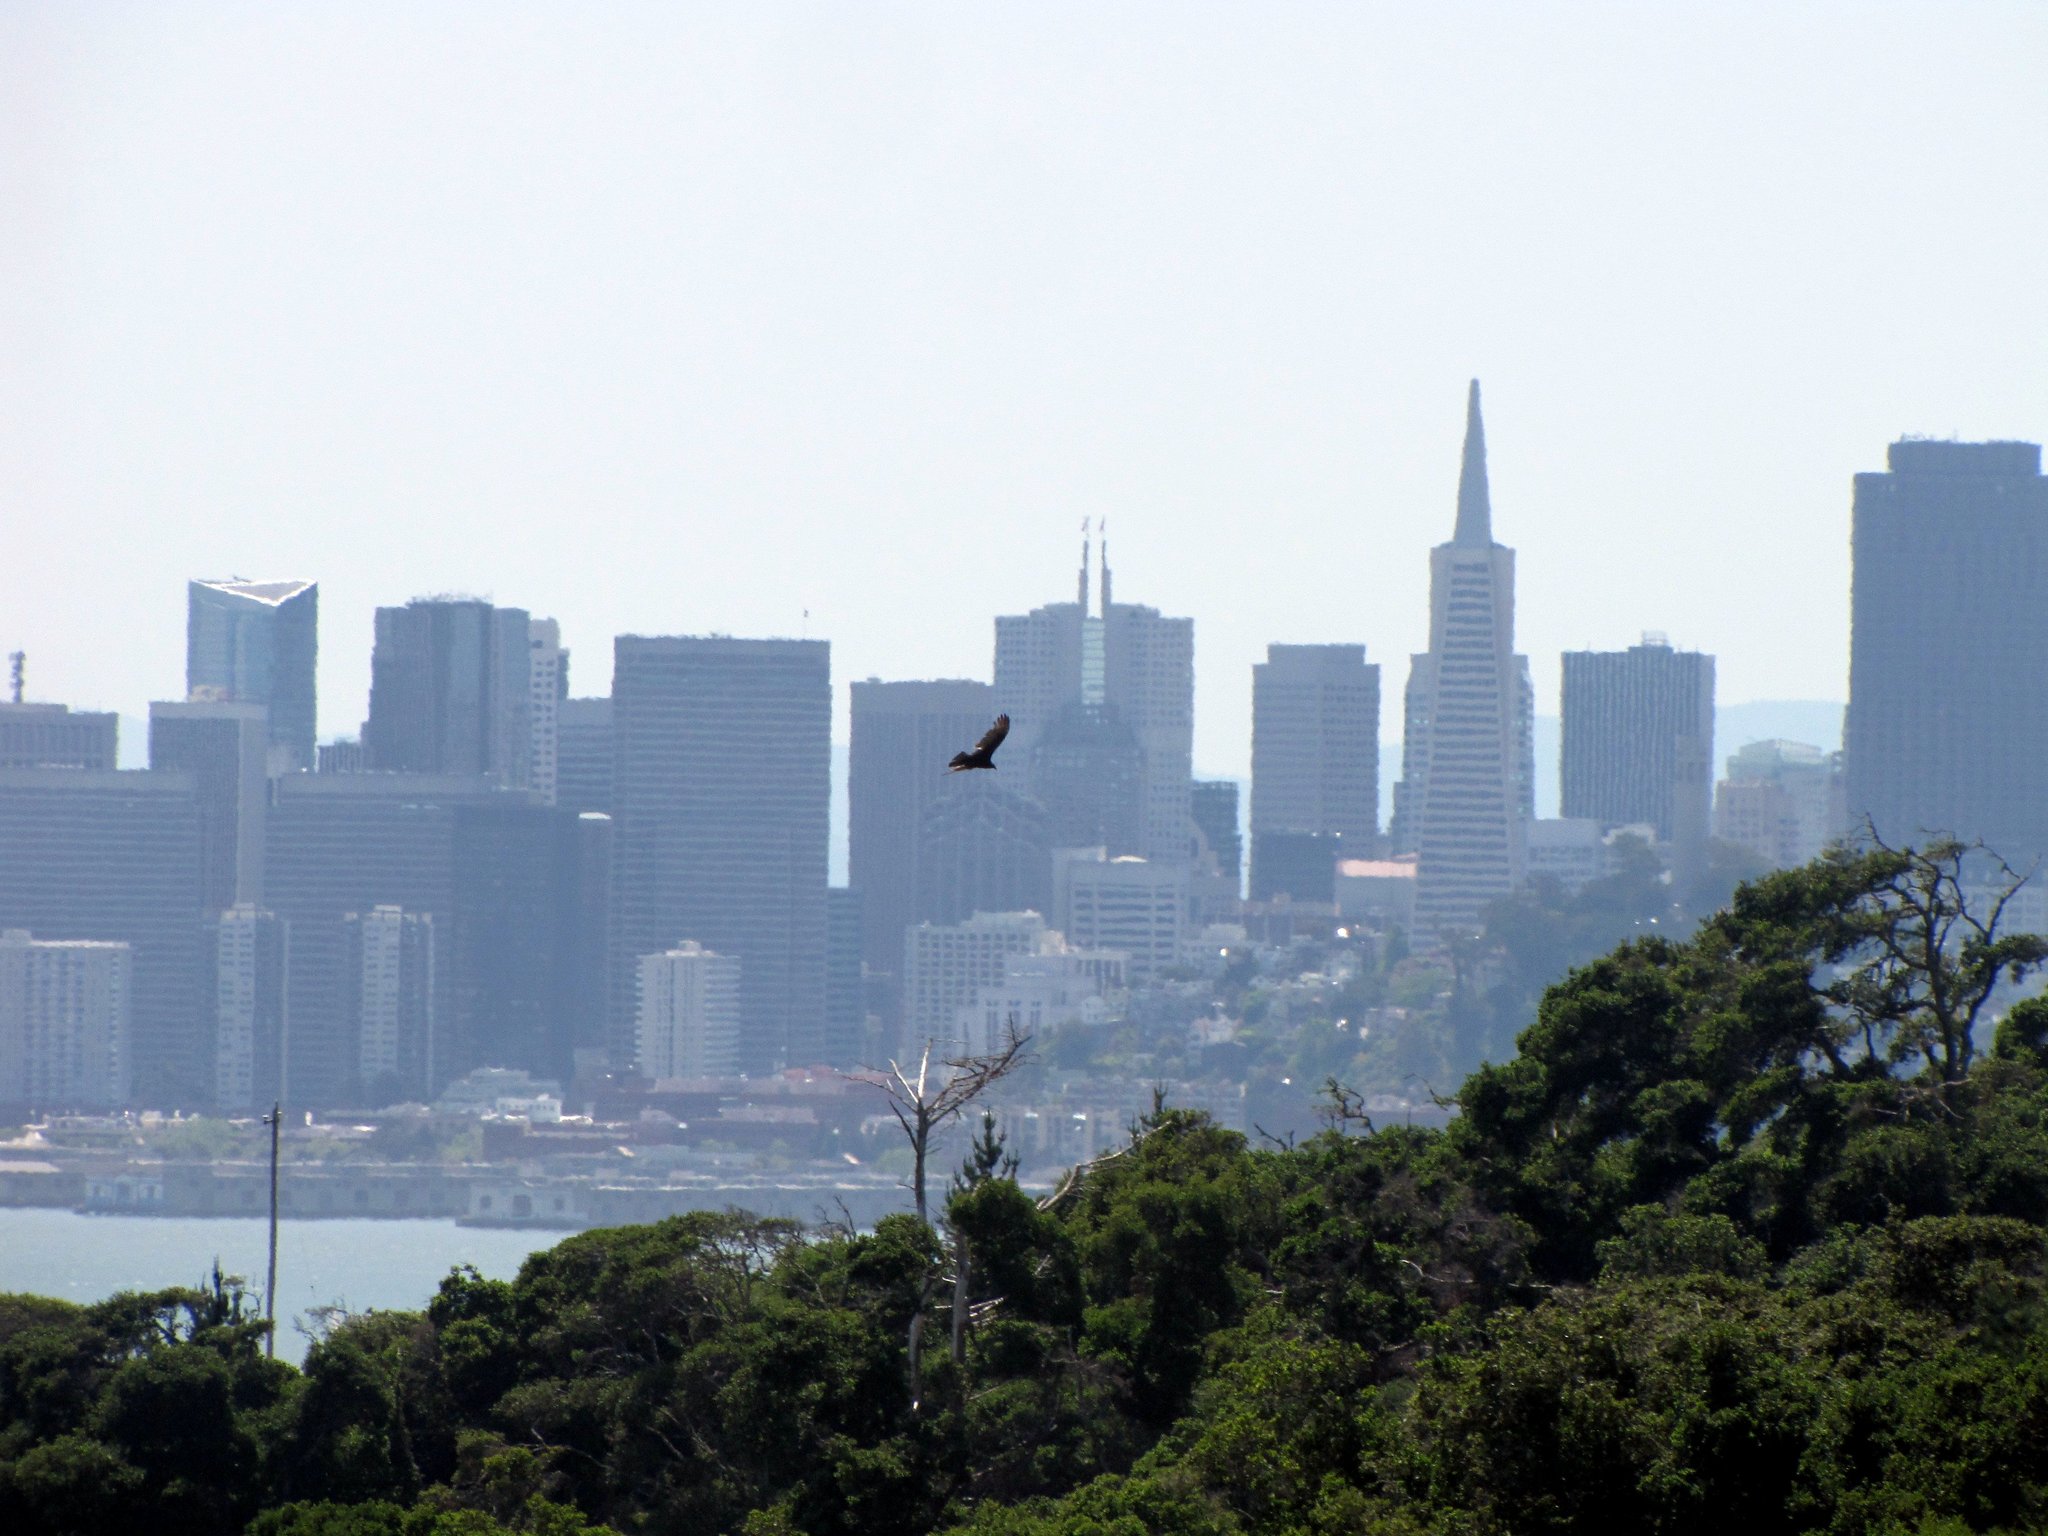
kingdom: Animalia
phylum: Chordata
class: Aves
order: Accipitriformes
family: Cathartidae
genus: Cathartes
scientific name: Cathartes aura
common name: Turkey vulture
